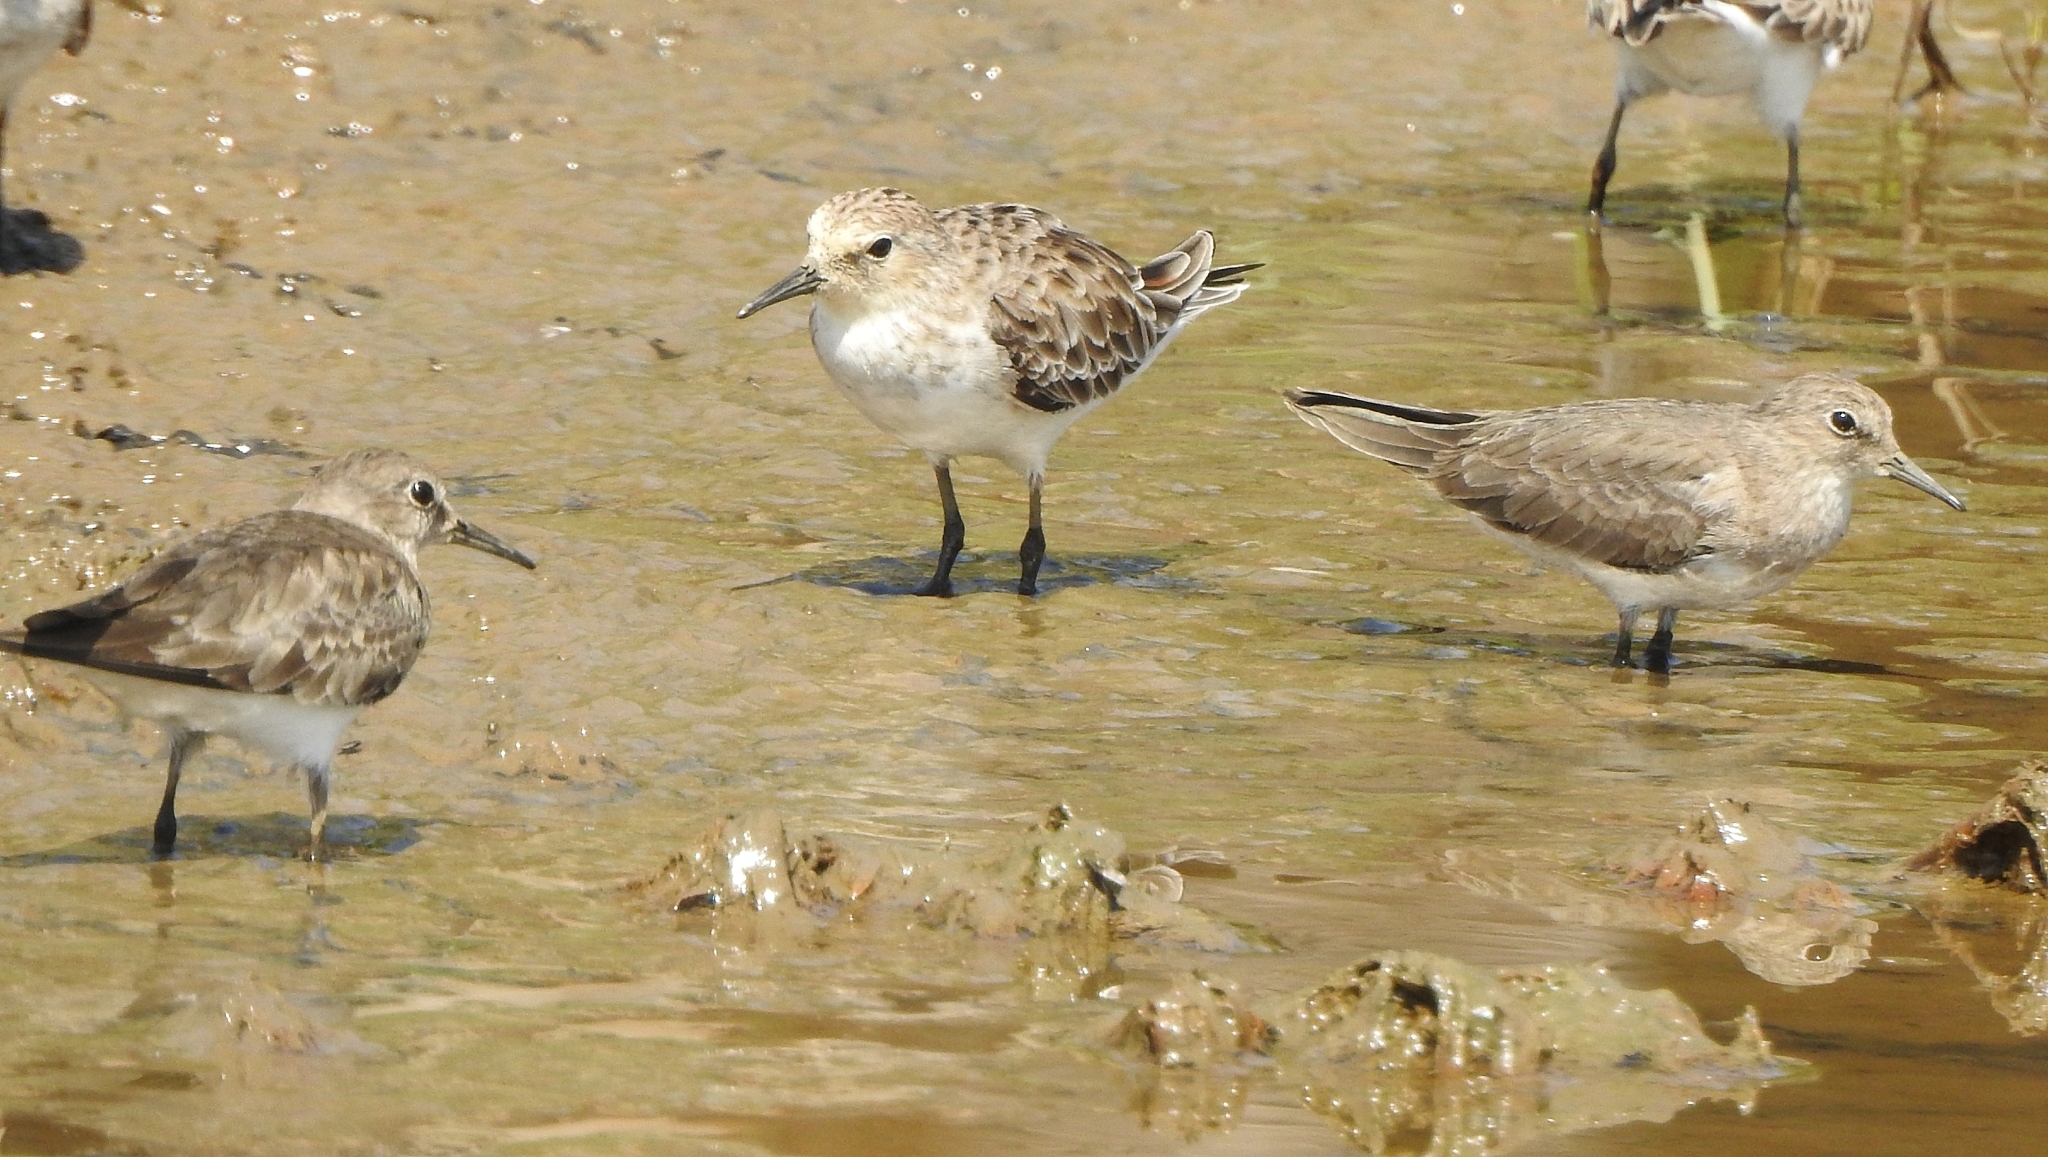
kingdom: Animalia
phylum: Chordata
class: Aves
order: Charadriiformes
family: Scolopacidae
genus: Calidris
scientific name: Calidris minuta
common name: Little stint
